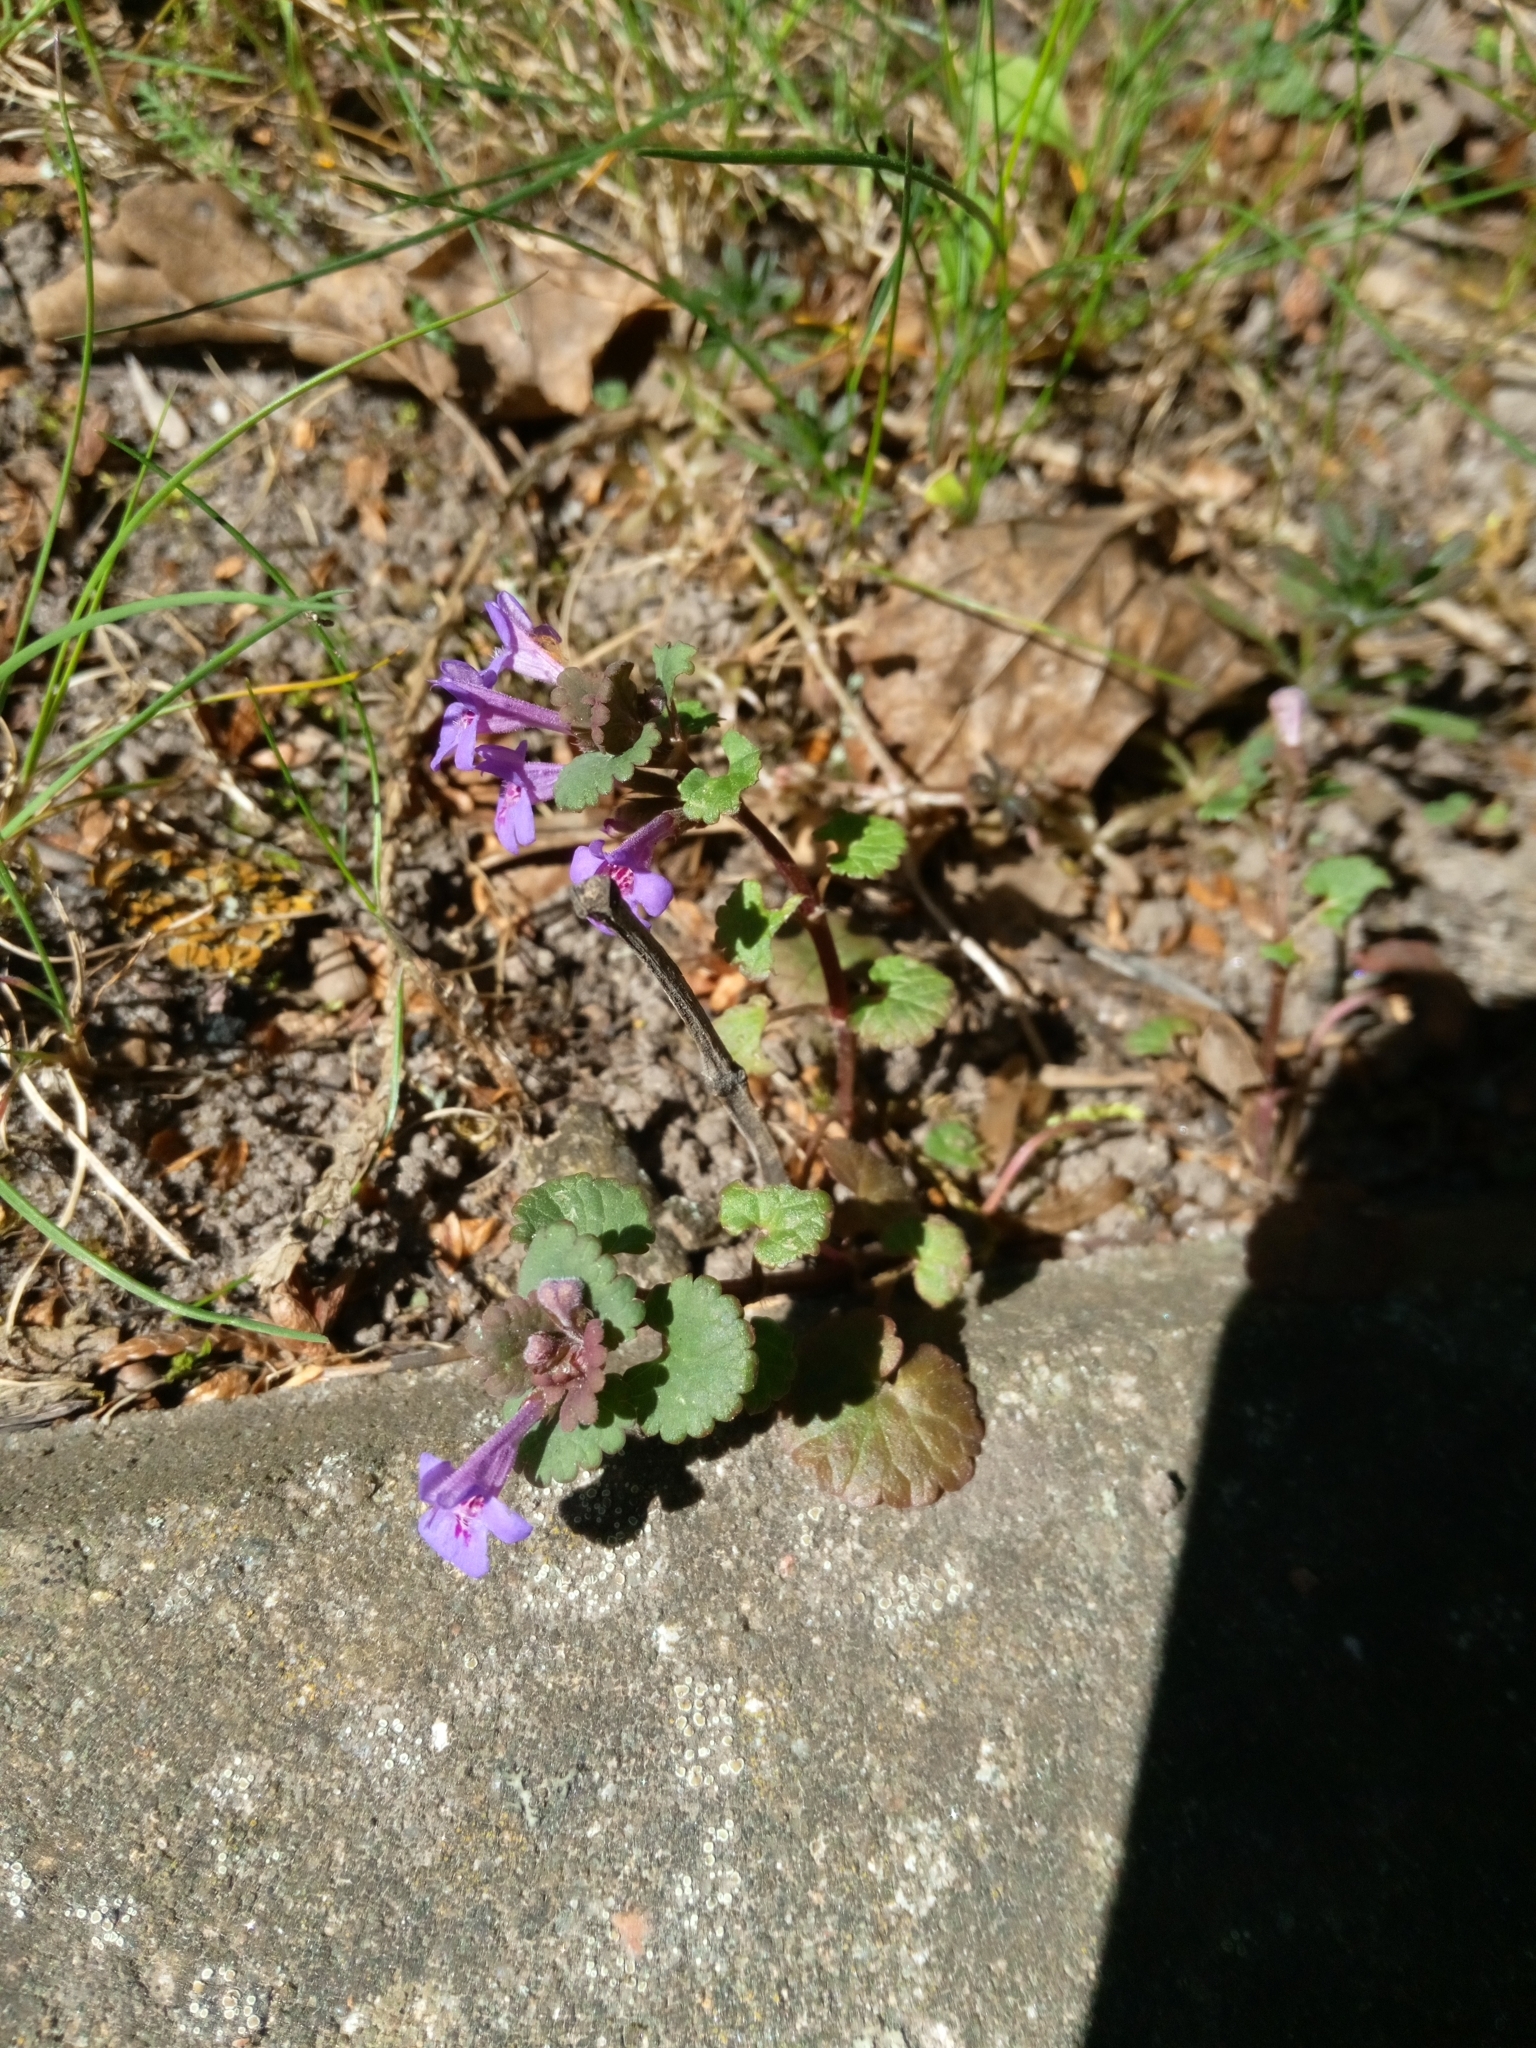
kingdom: Plantae
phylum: Tracheophyta
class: Magnoliopsida
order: Lamiales
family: Lamiaceae
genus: Glechoma
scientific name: Glechoma hederacea
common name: Ground ivy
